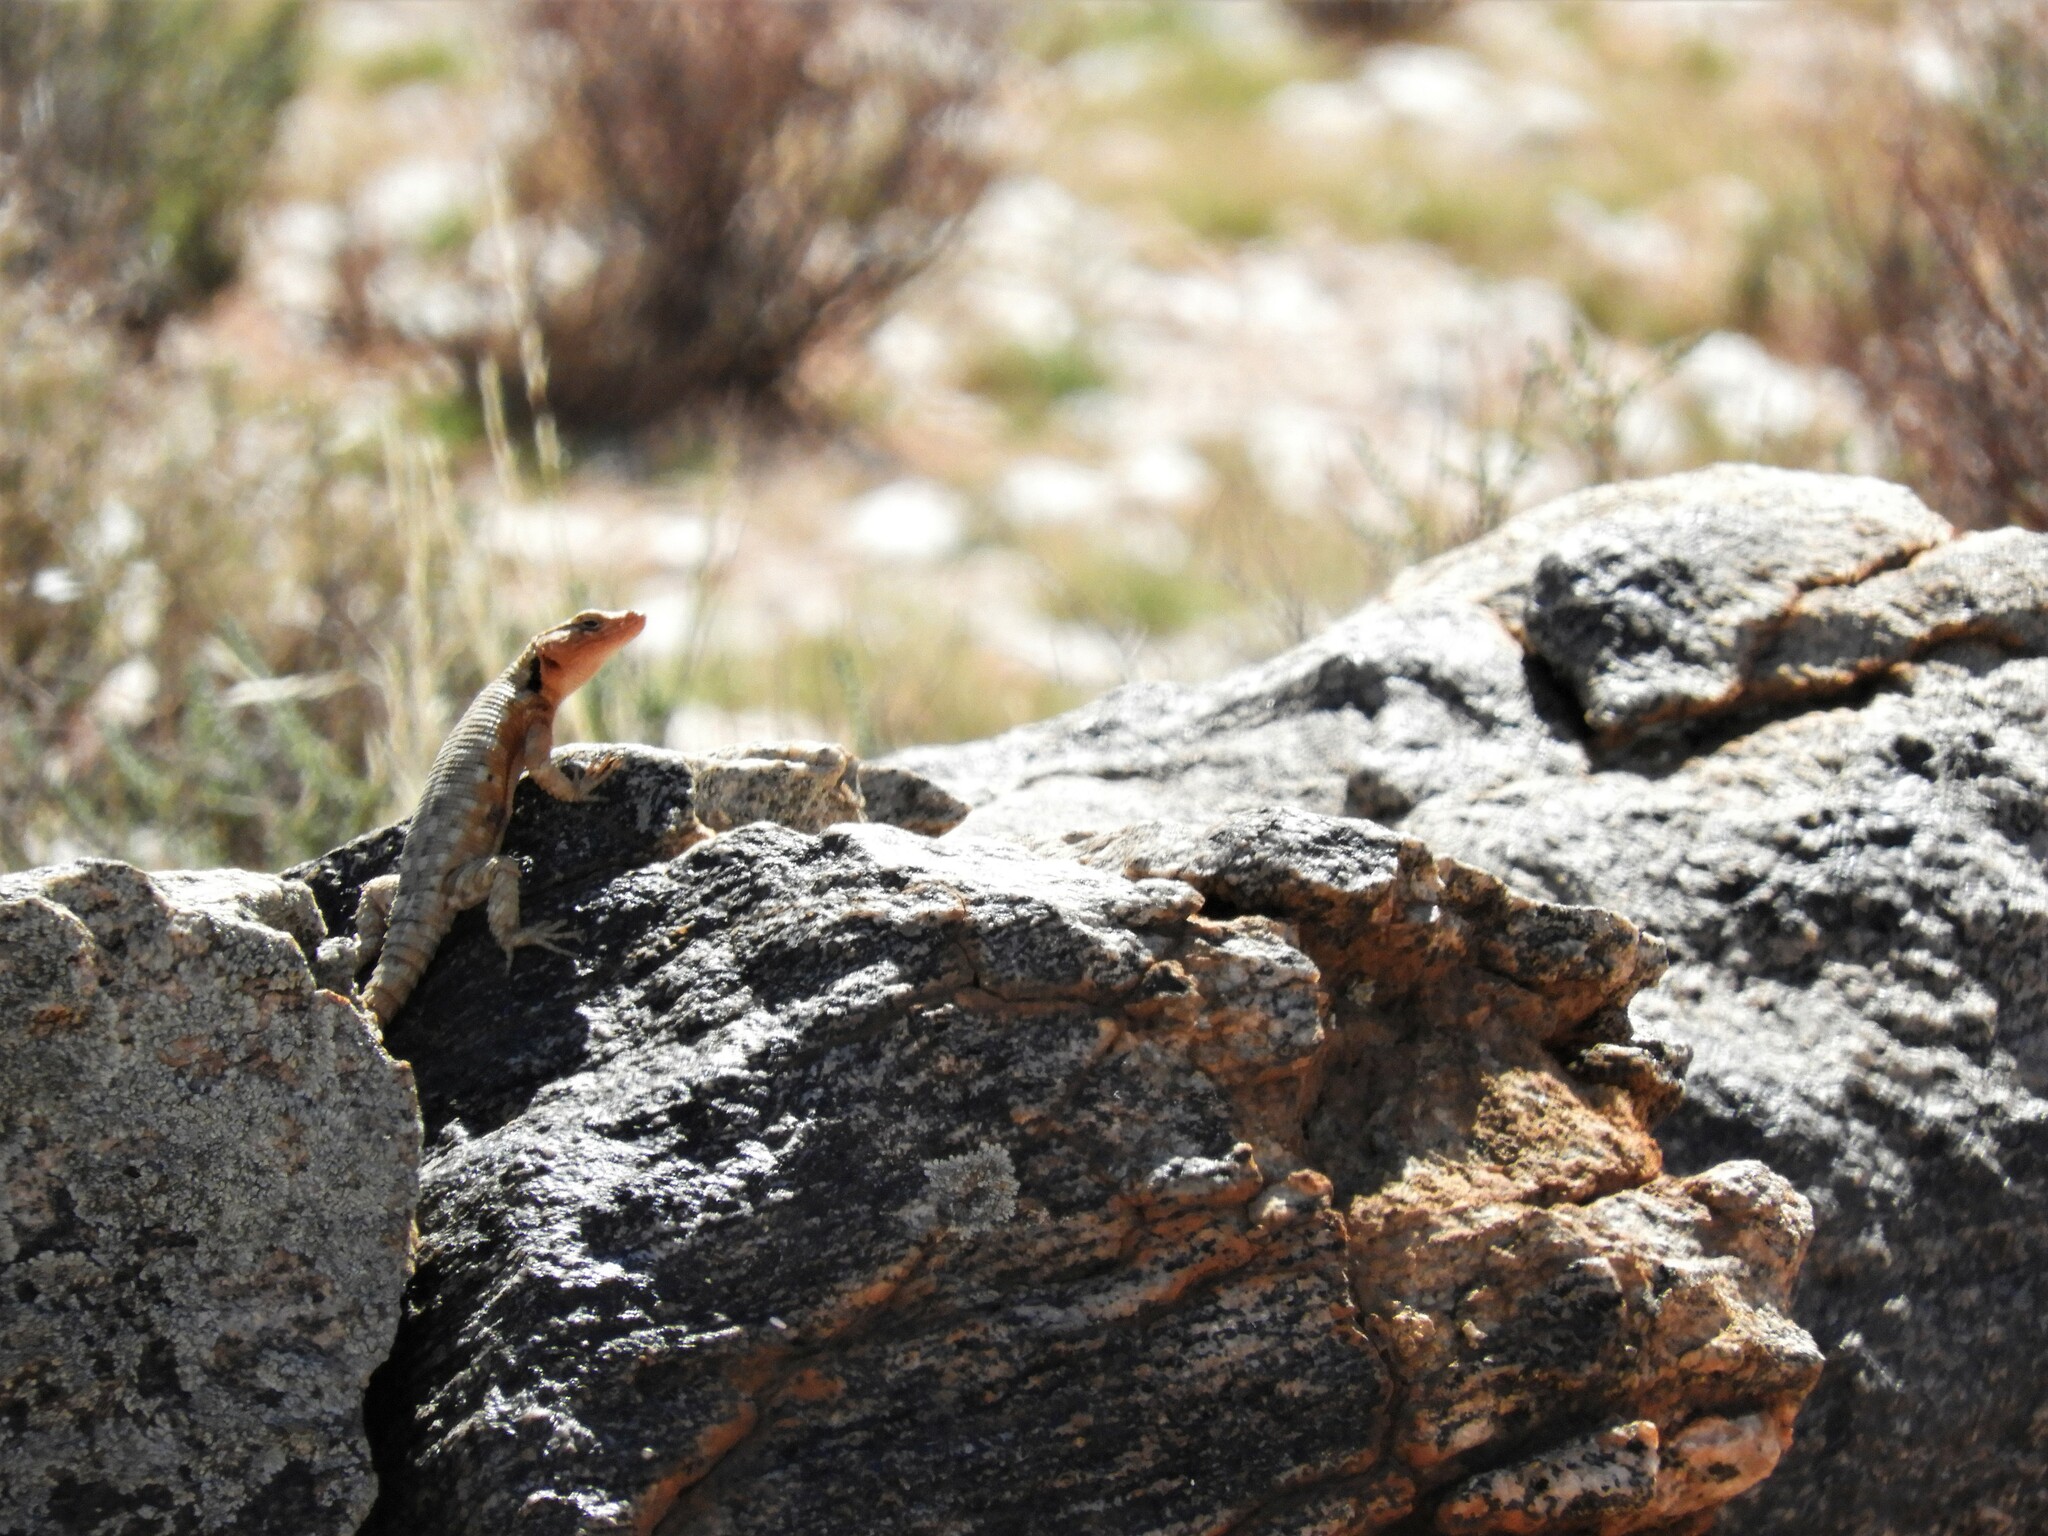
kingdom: Animalia
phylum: Chordata
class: Squamata
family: Cordylidae
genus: Karusasaurus
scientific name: Karusasaurus polyzonus
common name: Karoo girdled lizard
